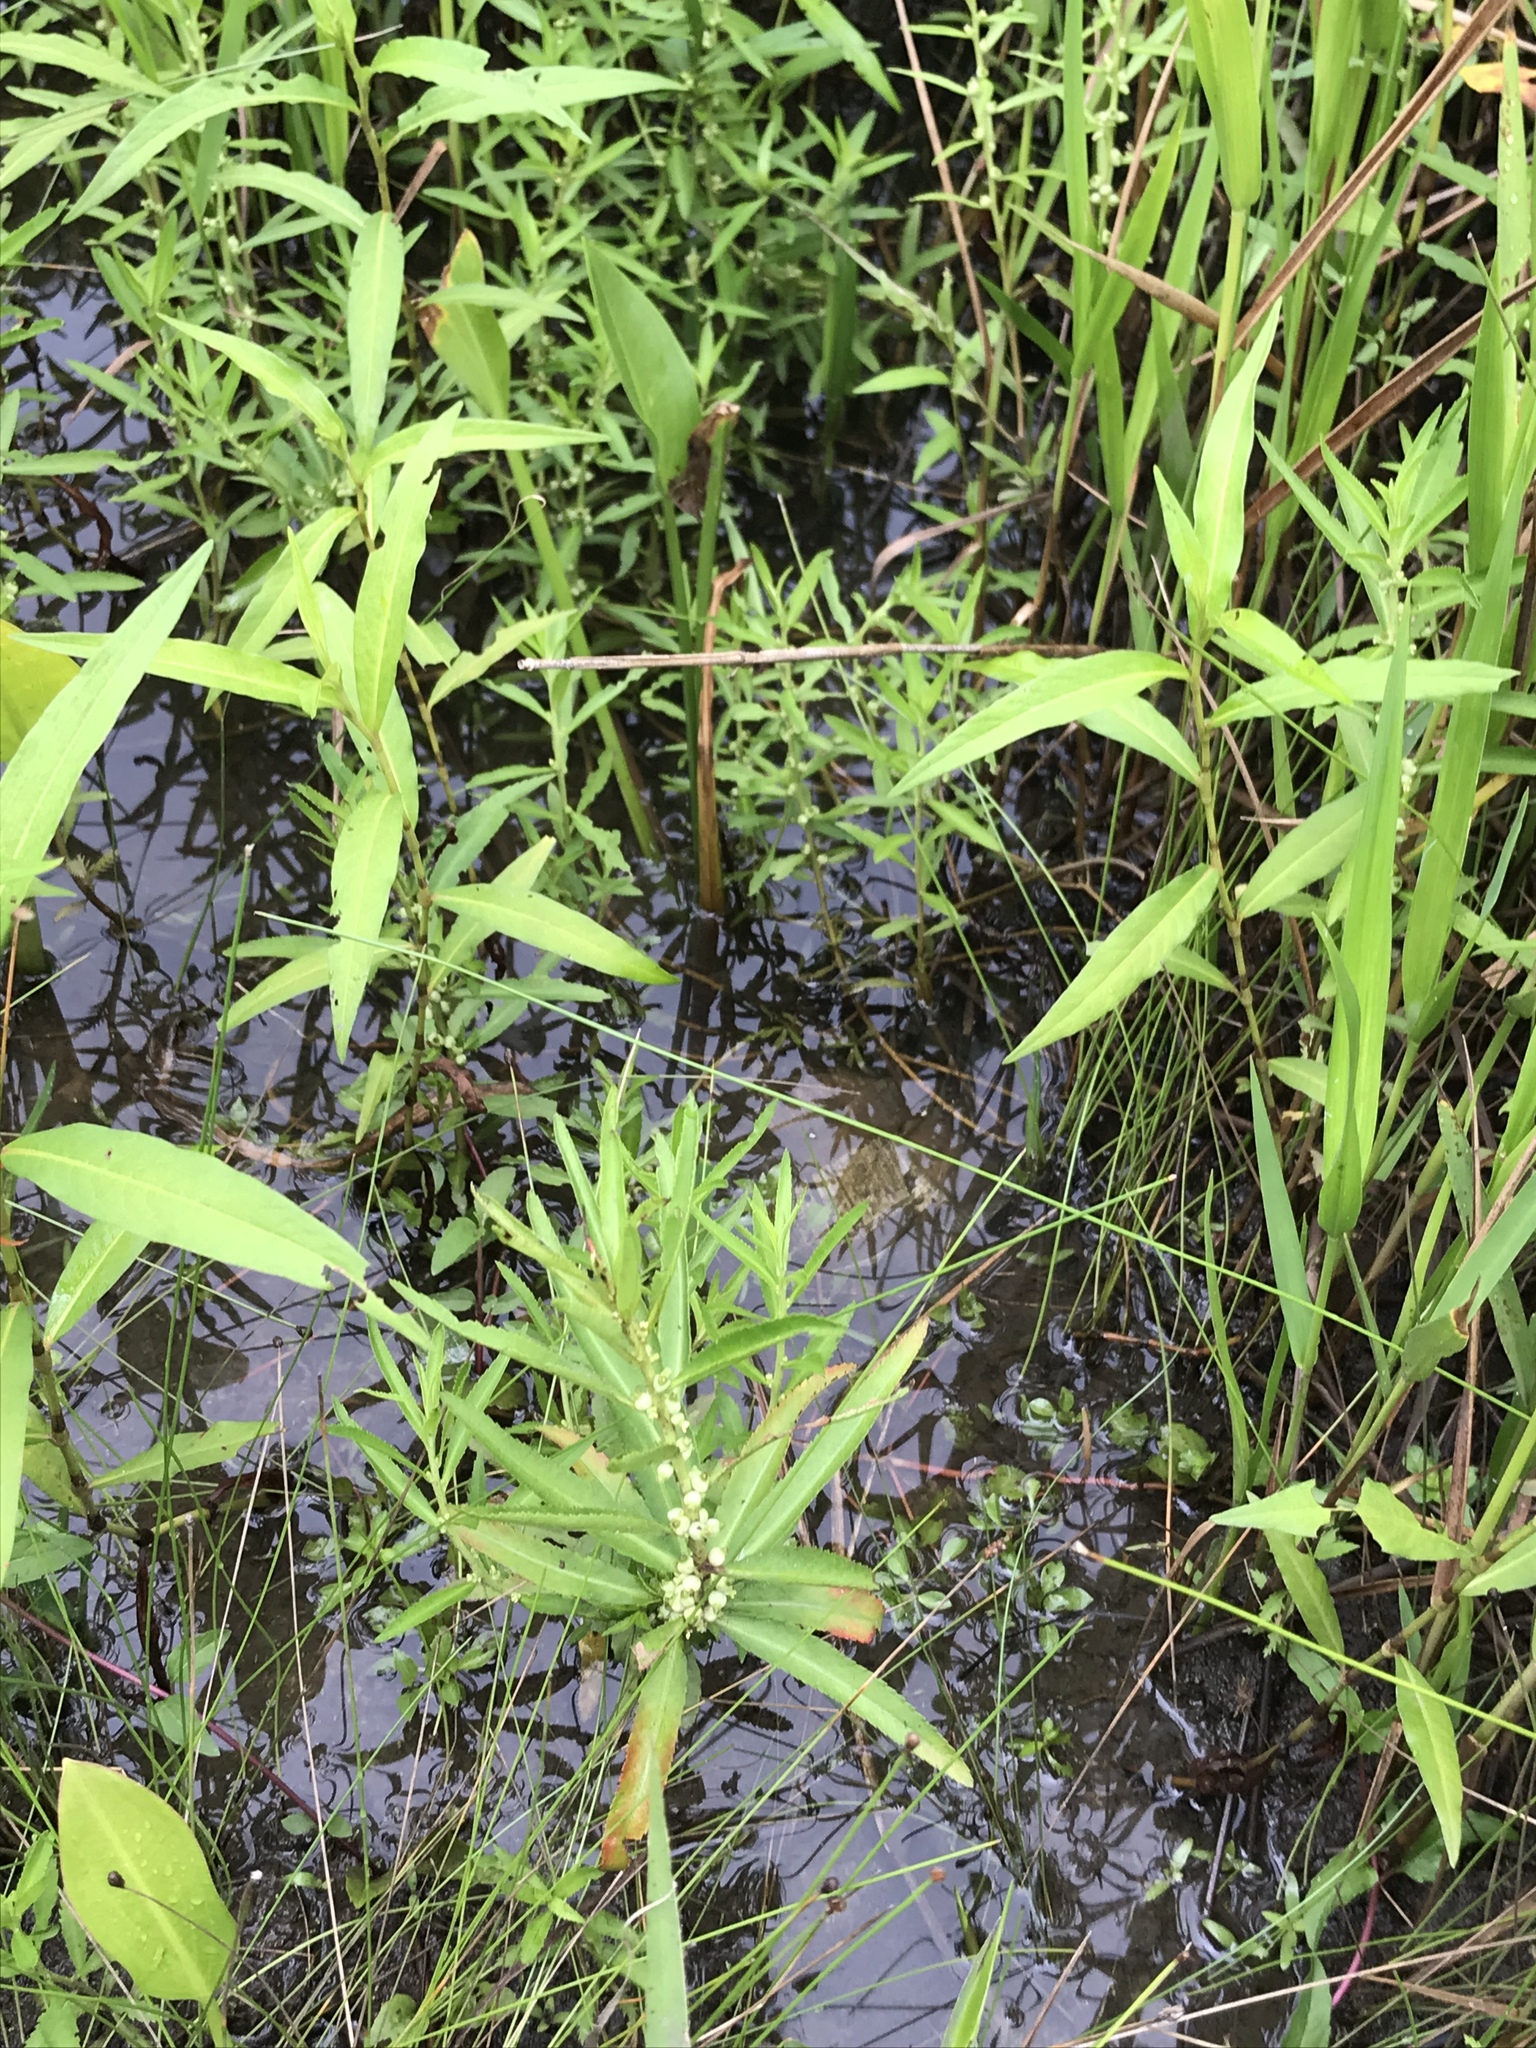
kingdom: Plantae
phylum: Tracheophyta
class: Magnoliopsida
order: Saxifragales
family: Haloragaceae
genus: Proserpinaca
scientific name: Proserpinaca palustris
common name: Marsh mermaidweed
